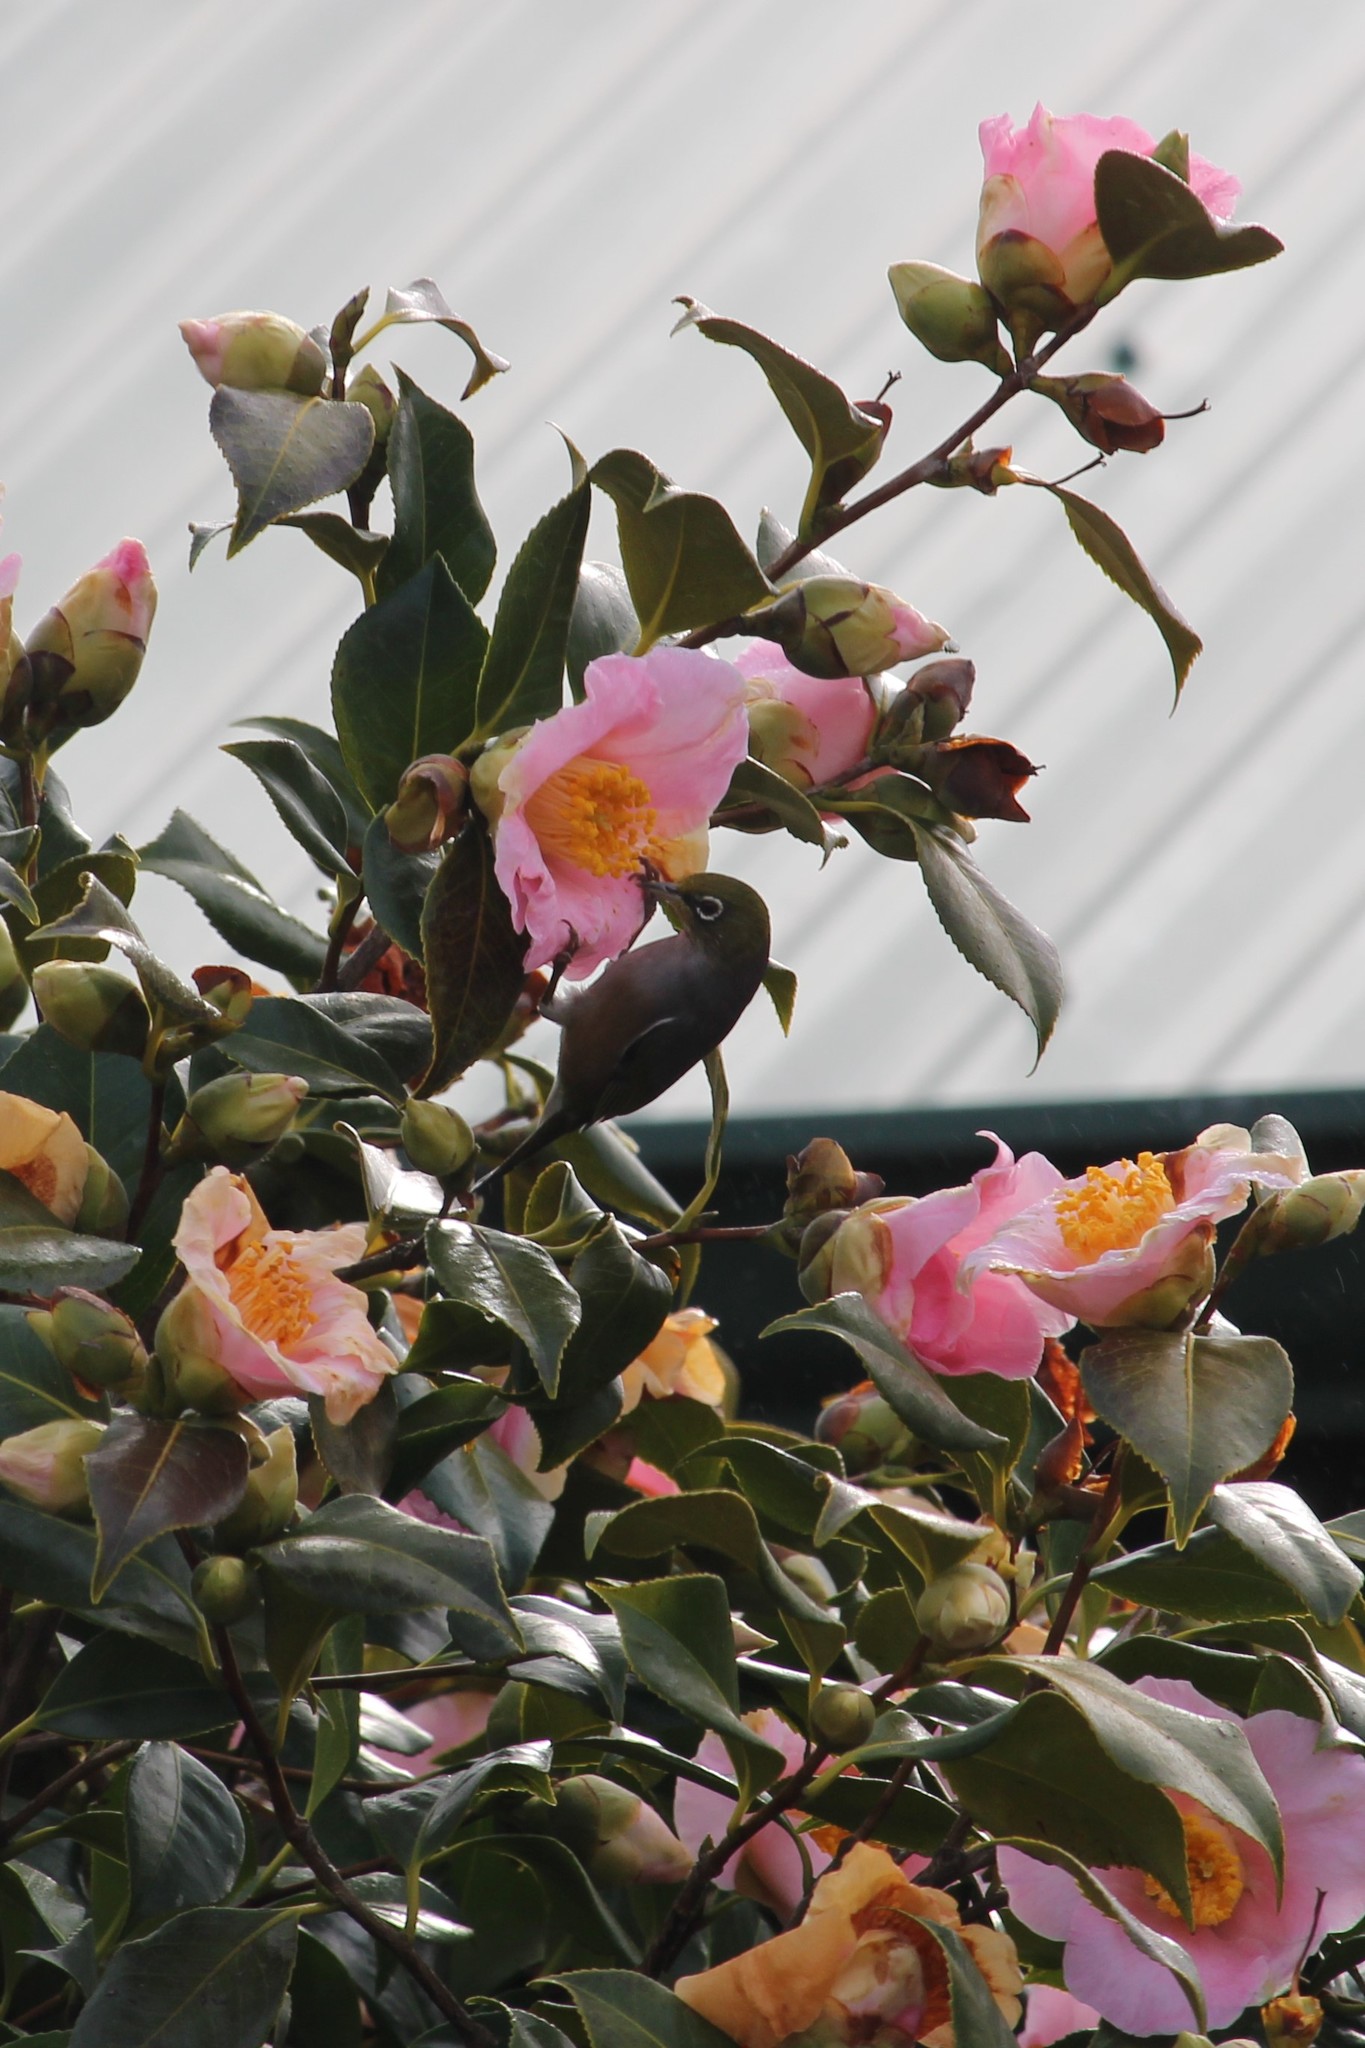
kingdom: Animalia
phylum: Chordata
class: Aves
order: Passeriformes
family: Zosteropidae
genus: Zosterops
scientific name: Zosterops lateralis
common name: Silvereye
